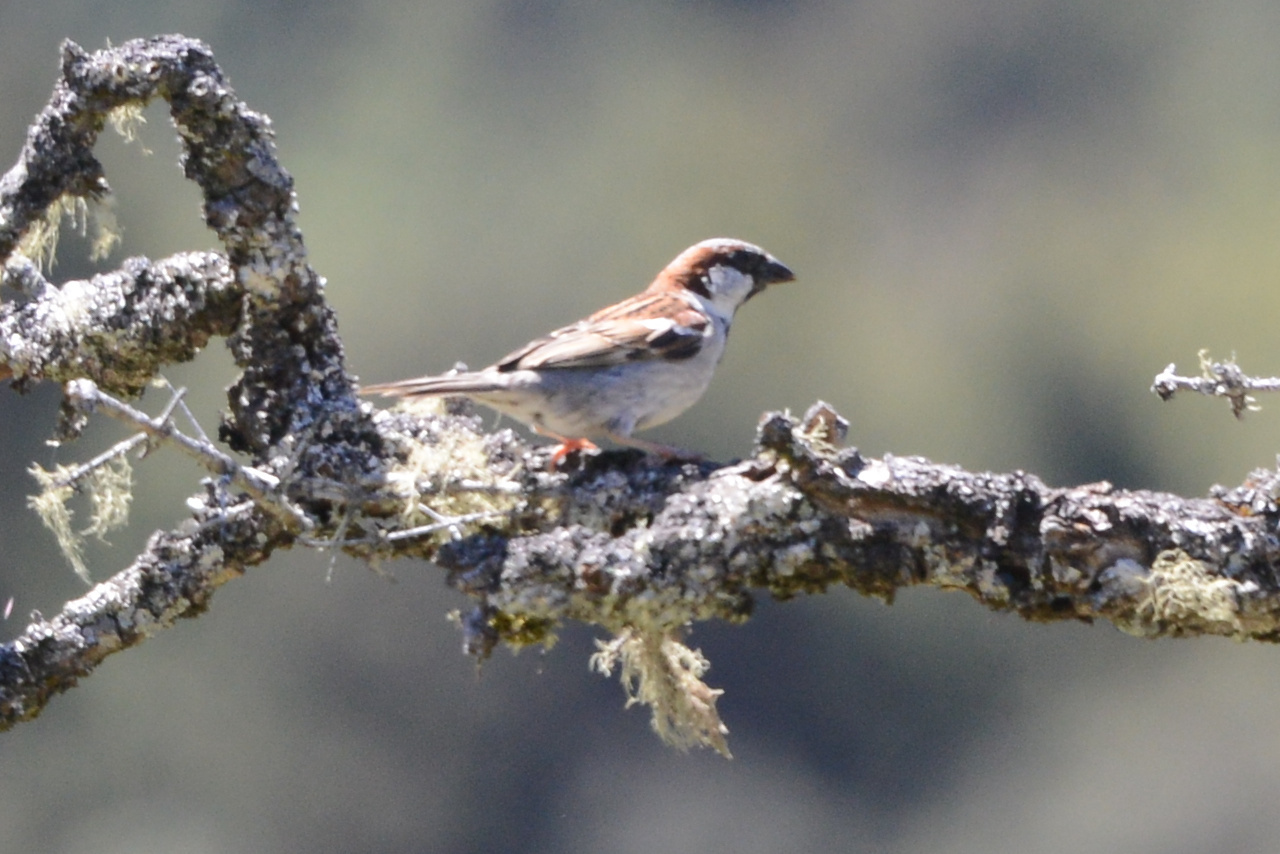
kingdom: Animalia
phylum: Chordata
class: Aves
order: Passeriformes
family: Passeridae
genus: Passer
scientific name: Passer domesticus
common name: House sparrow
